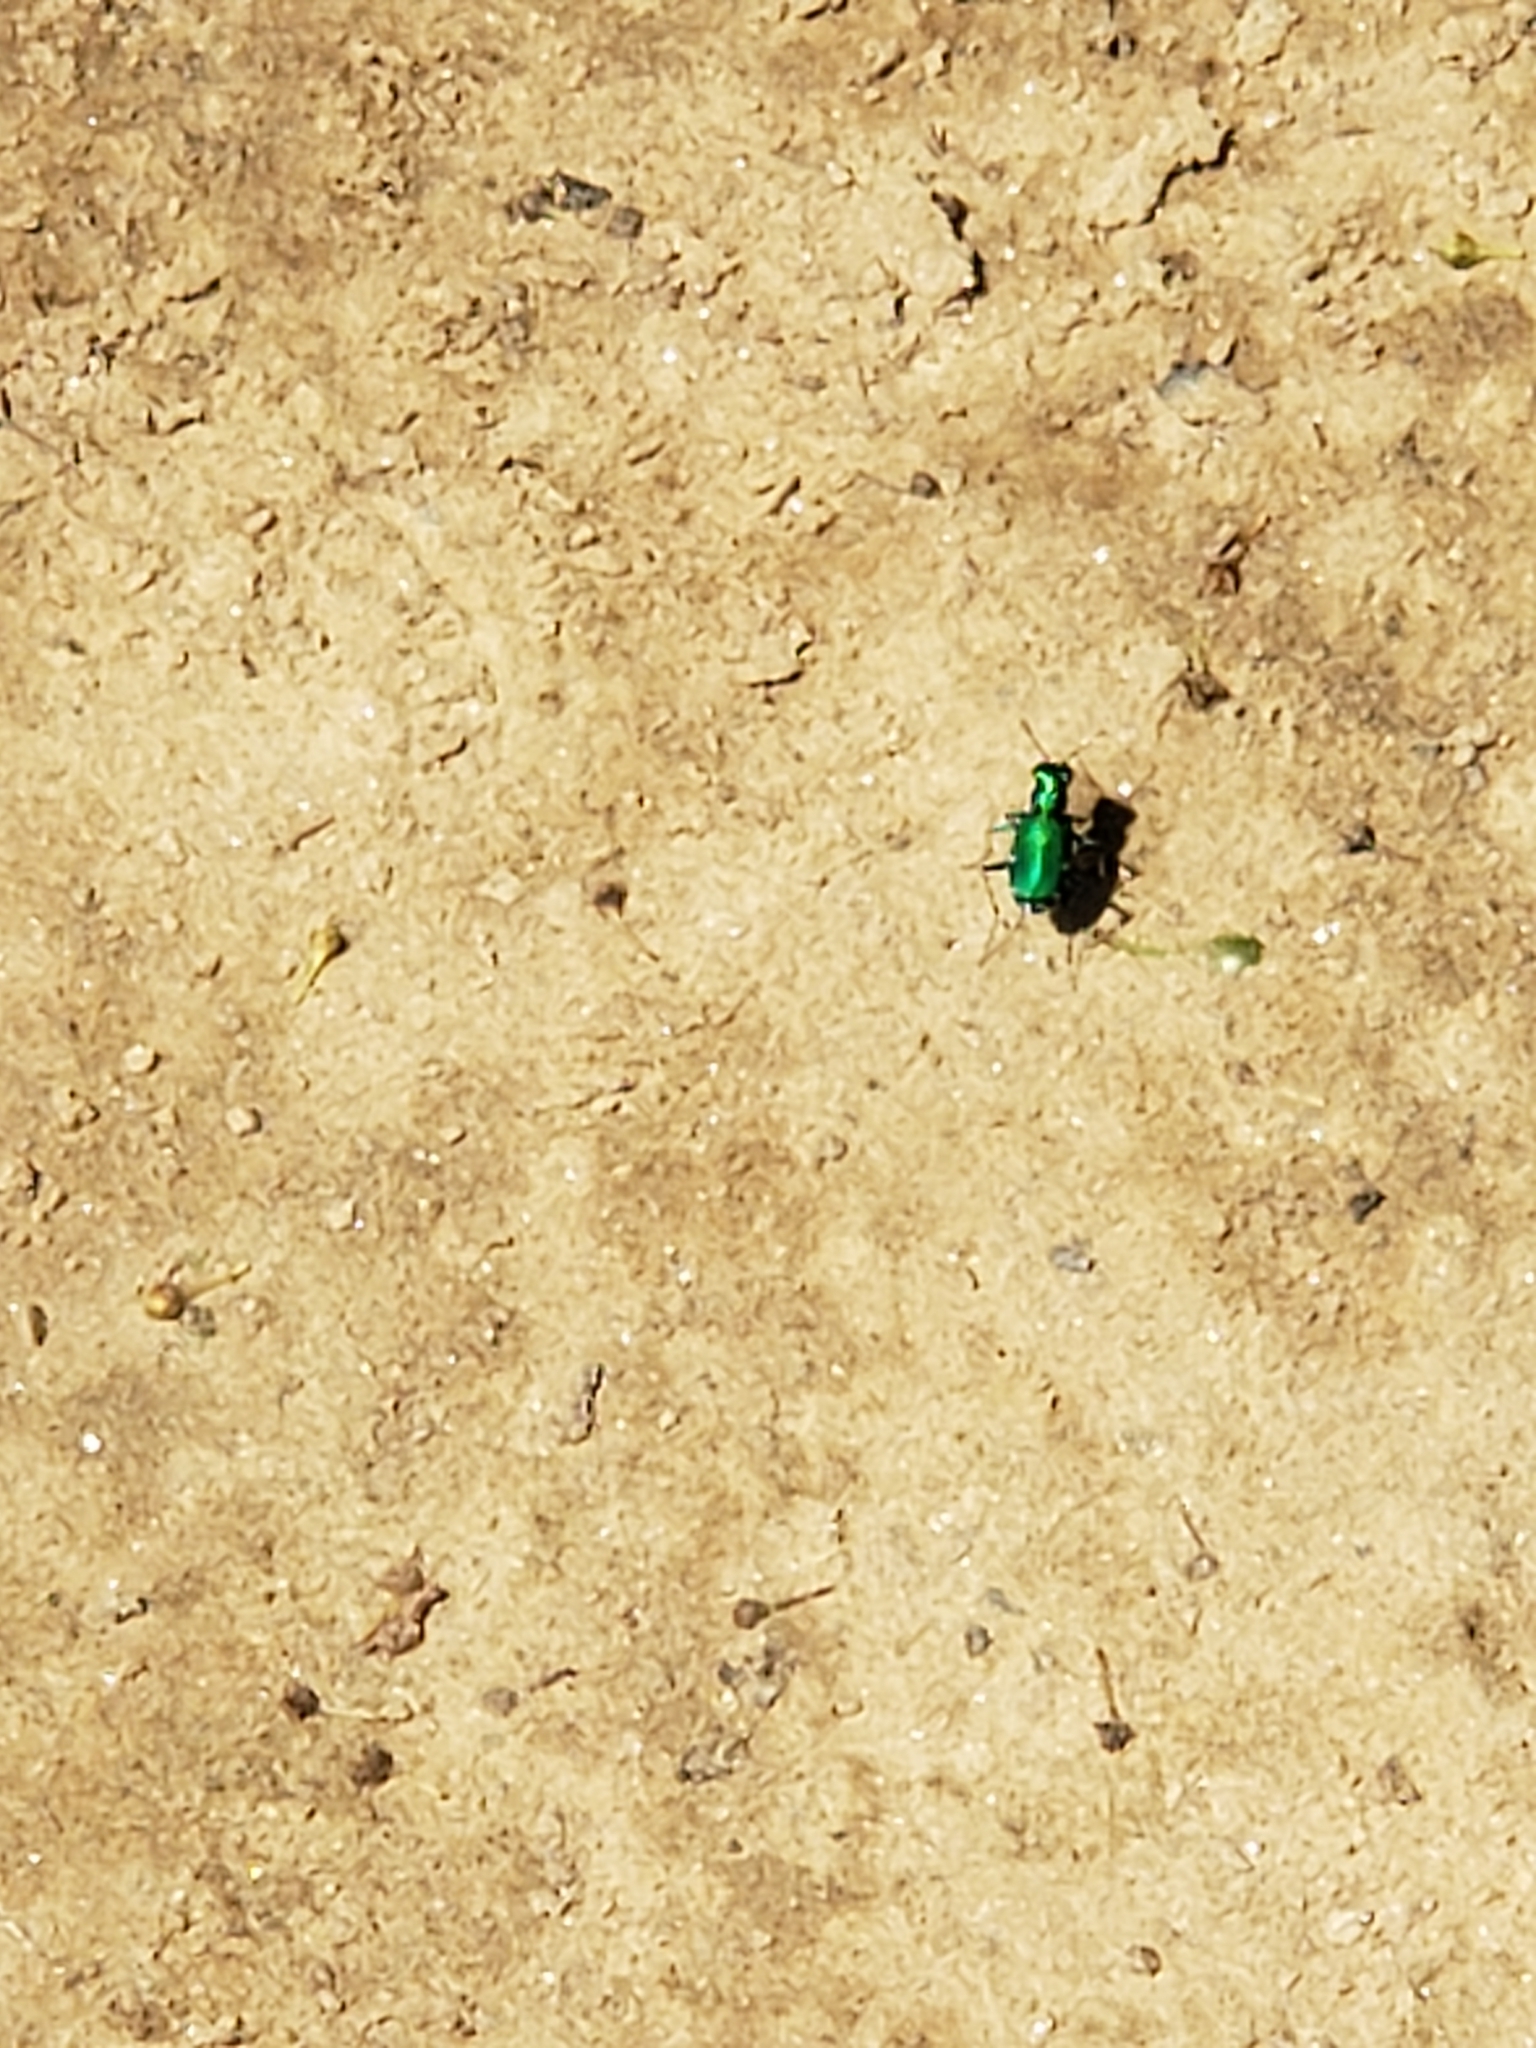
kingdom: Animalia
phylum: Arthropoda
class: Insecta
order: Coleoptera
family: Carabidae
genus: Cicindela
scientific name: Cicindela sexguttata
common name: Six-spotted tiger beetle
